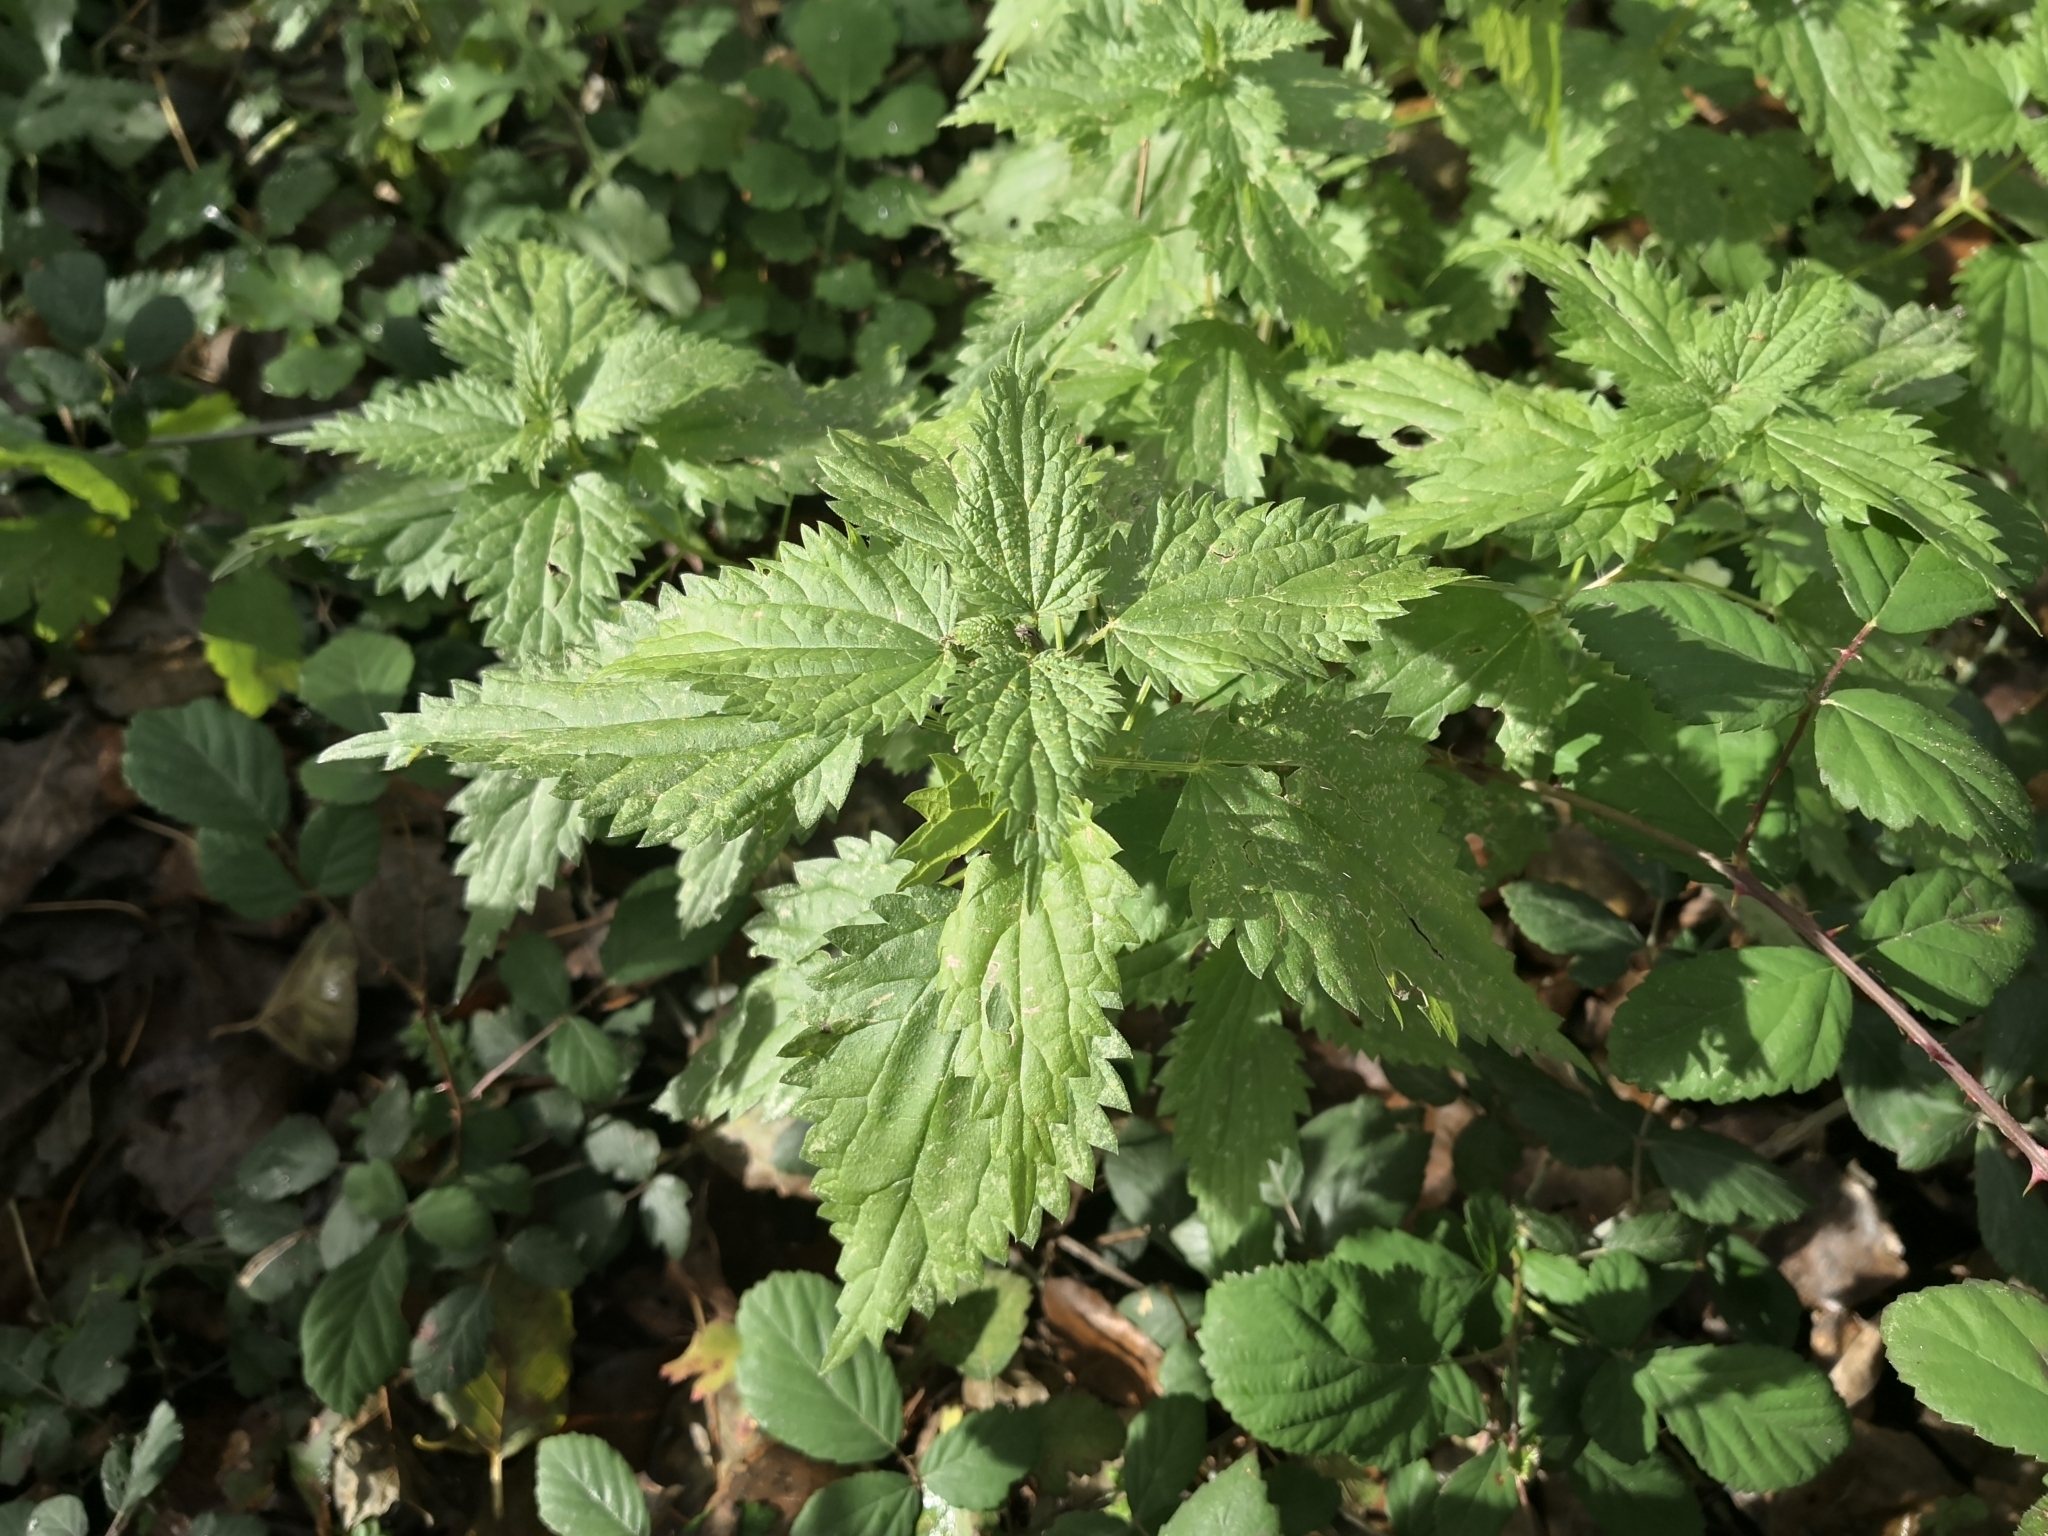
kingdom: Plantae
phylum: Tracheophyta
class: Magnoliopsida
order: Rosales
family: Urticaceae
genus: Urtica
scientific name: Urtica dioica
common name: Common nettle
